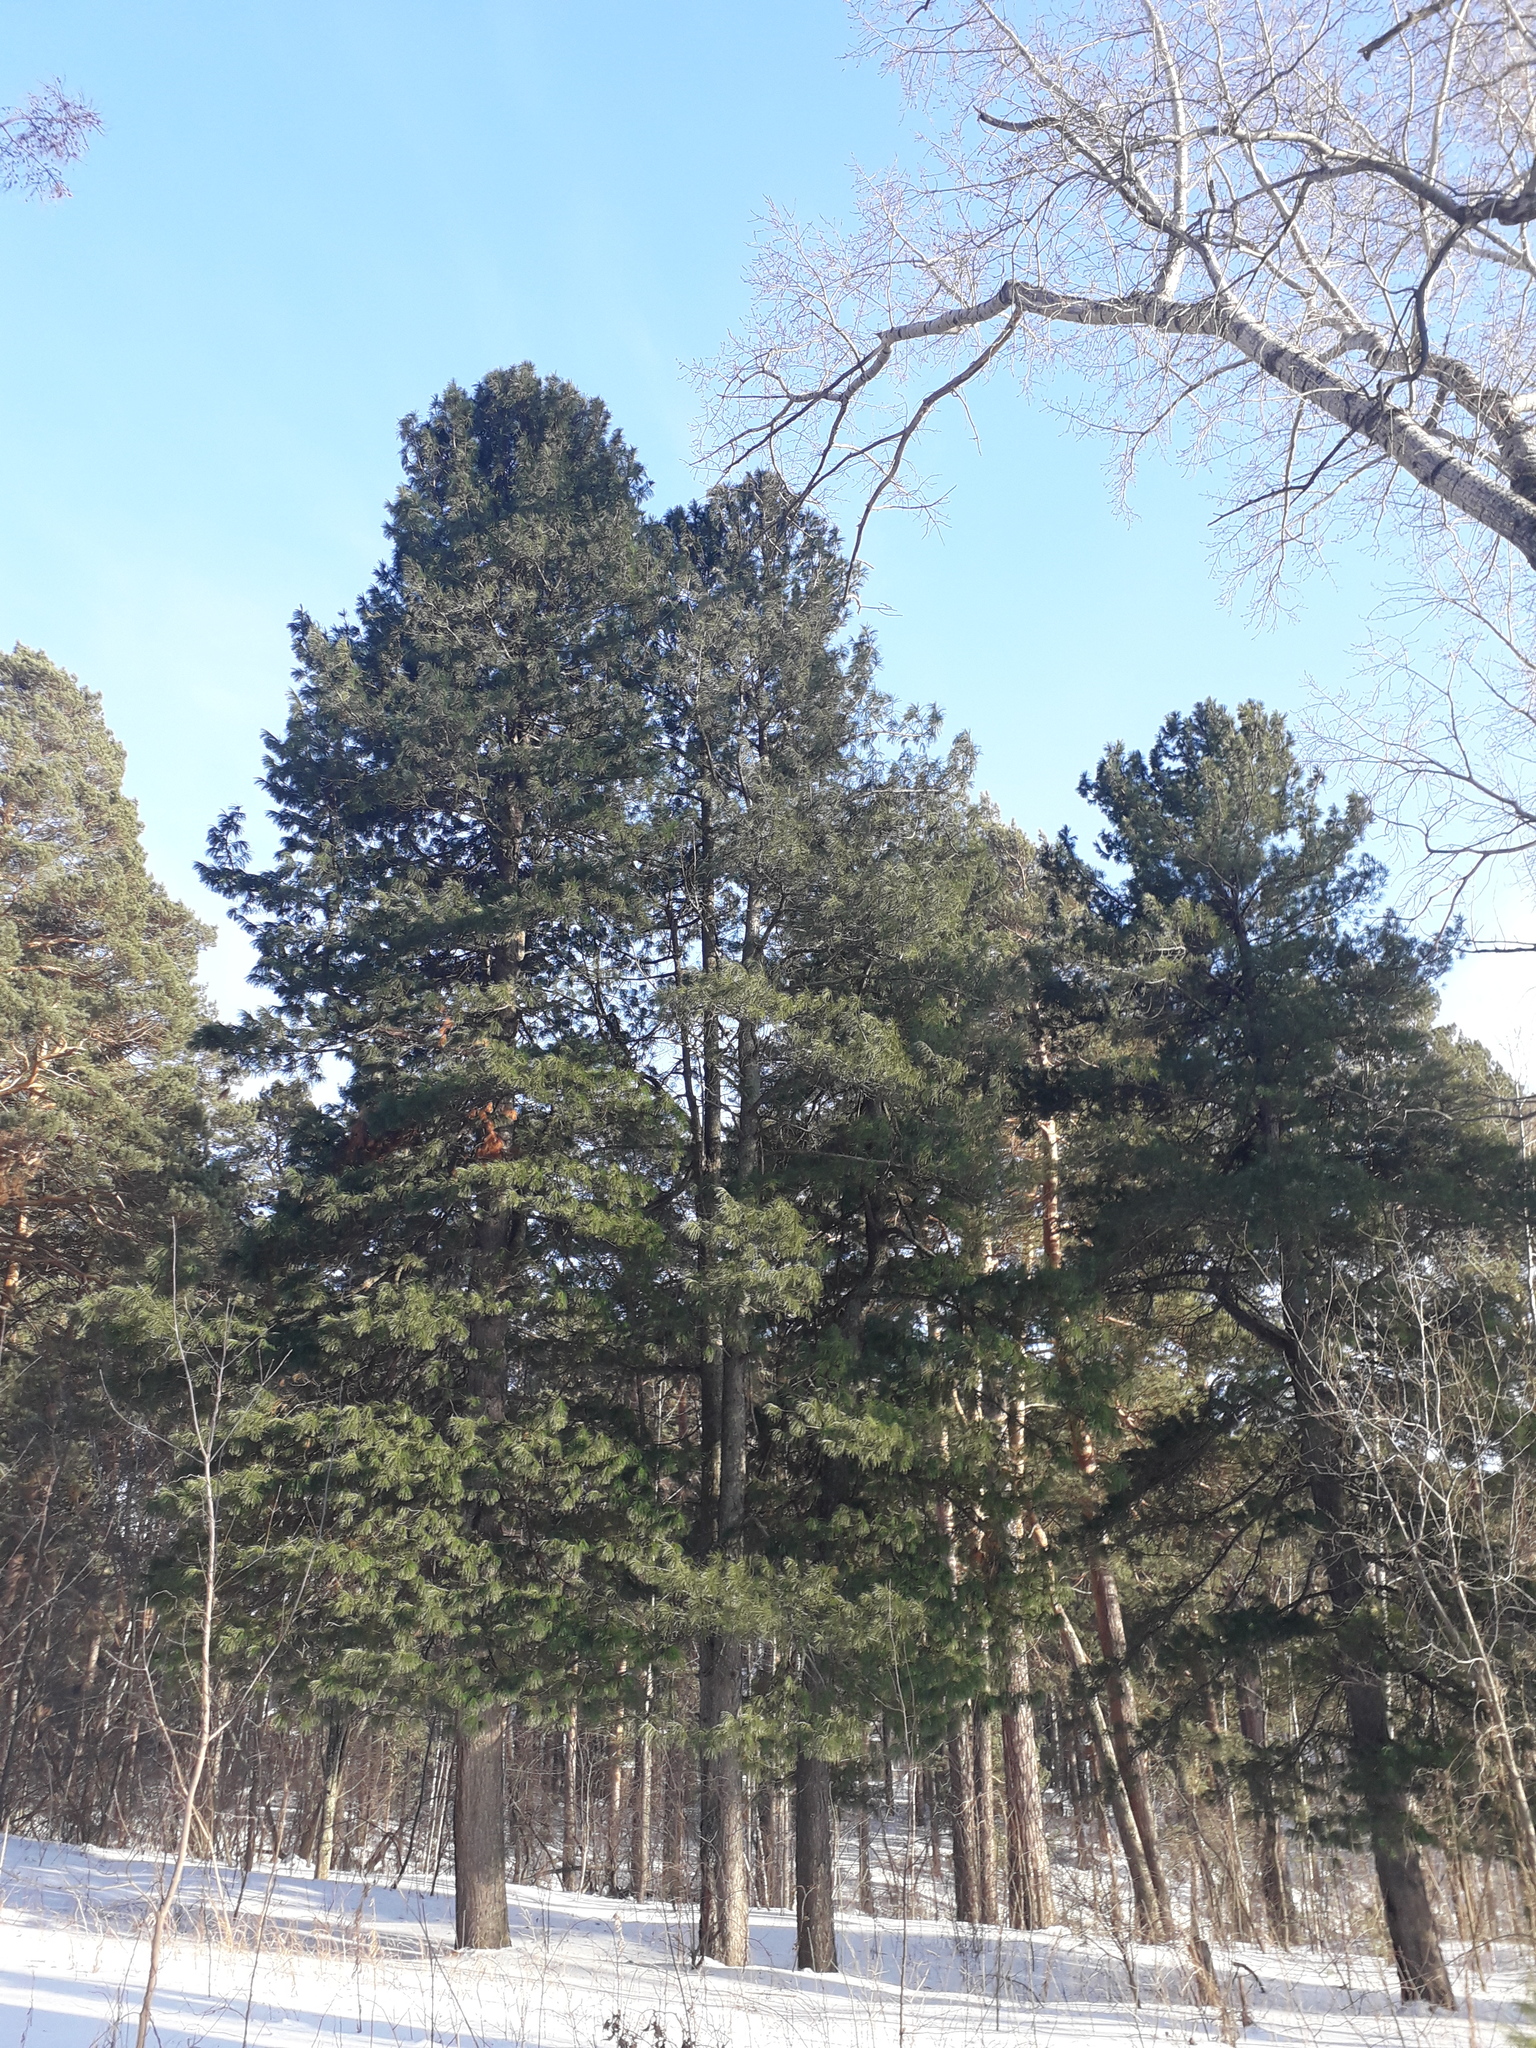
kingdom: Plantae
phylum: Tracheophyta
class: Pinopsida
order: Pinales
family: Pinaceae
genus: Pinus
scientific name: Pinus sibirica
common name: Siberian pine
